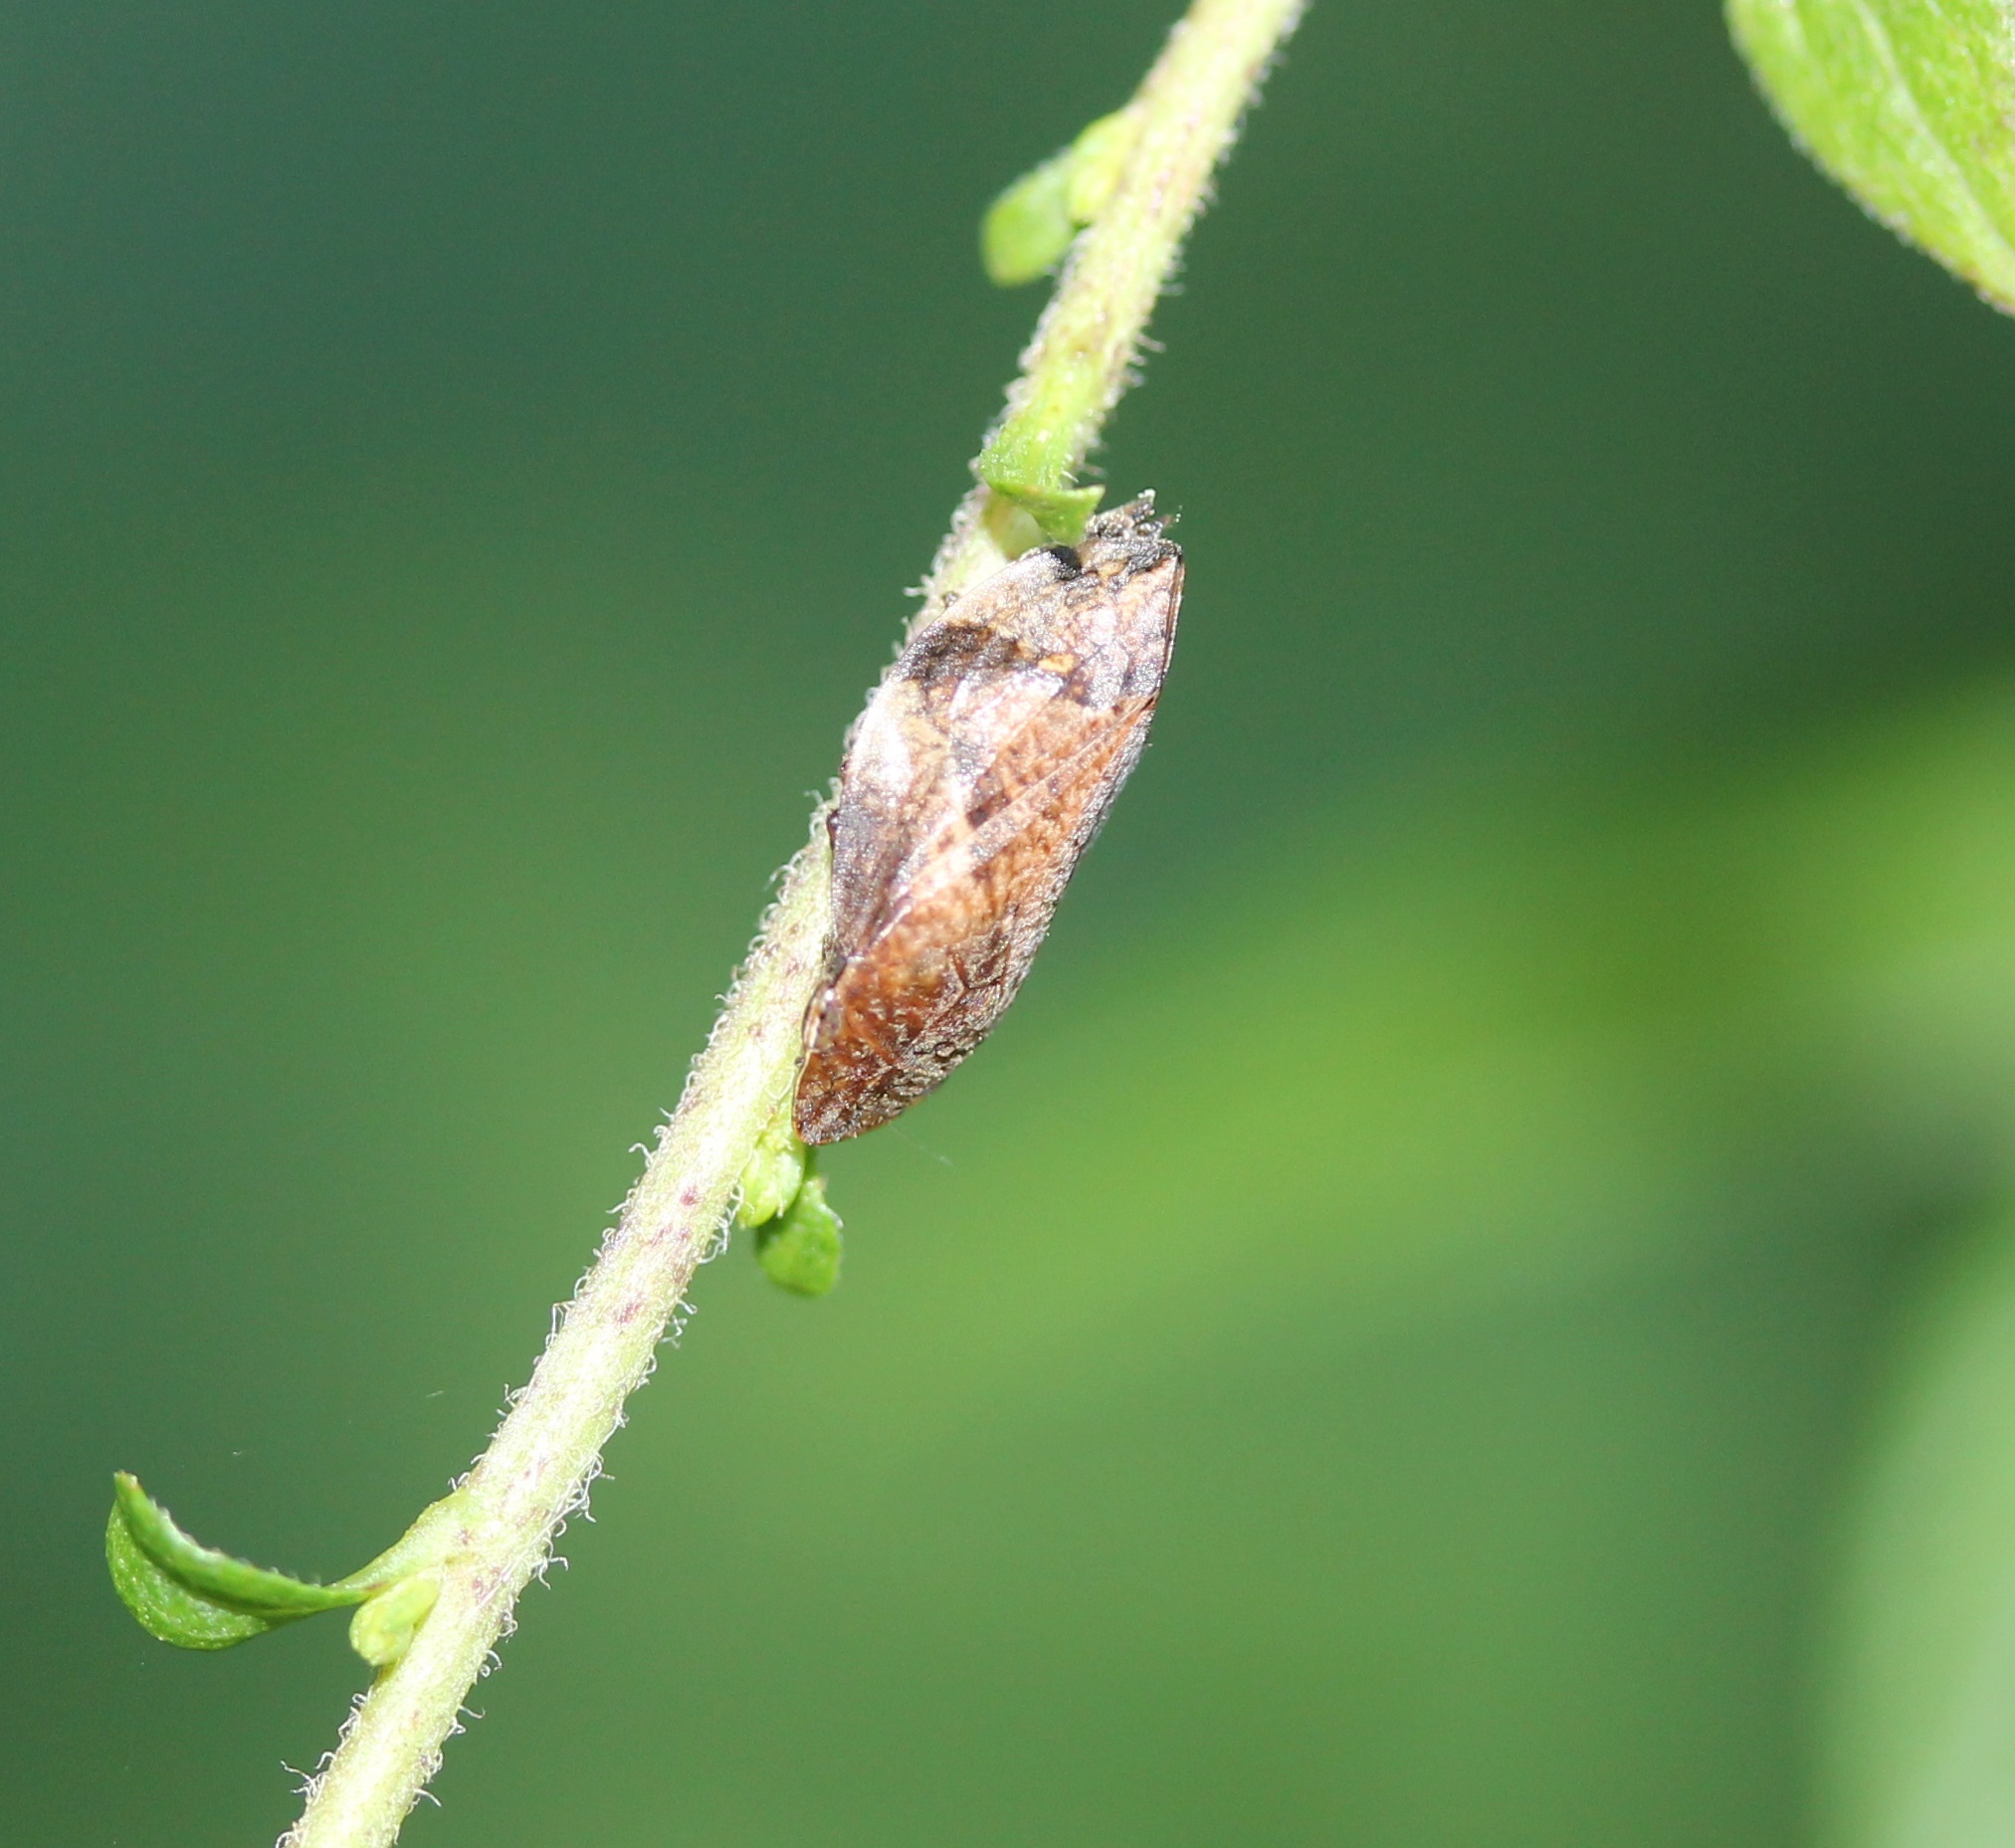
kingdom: Animalia
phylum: Arthropoda
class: Insecta
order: Hemiptera
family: Aphrophoridae
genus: Lepyronia
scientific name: Lepyronia quadrangularis
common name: Diamond-backed spittlebug
